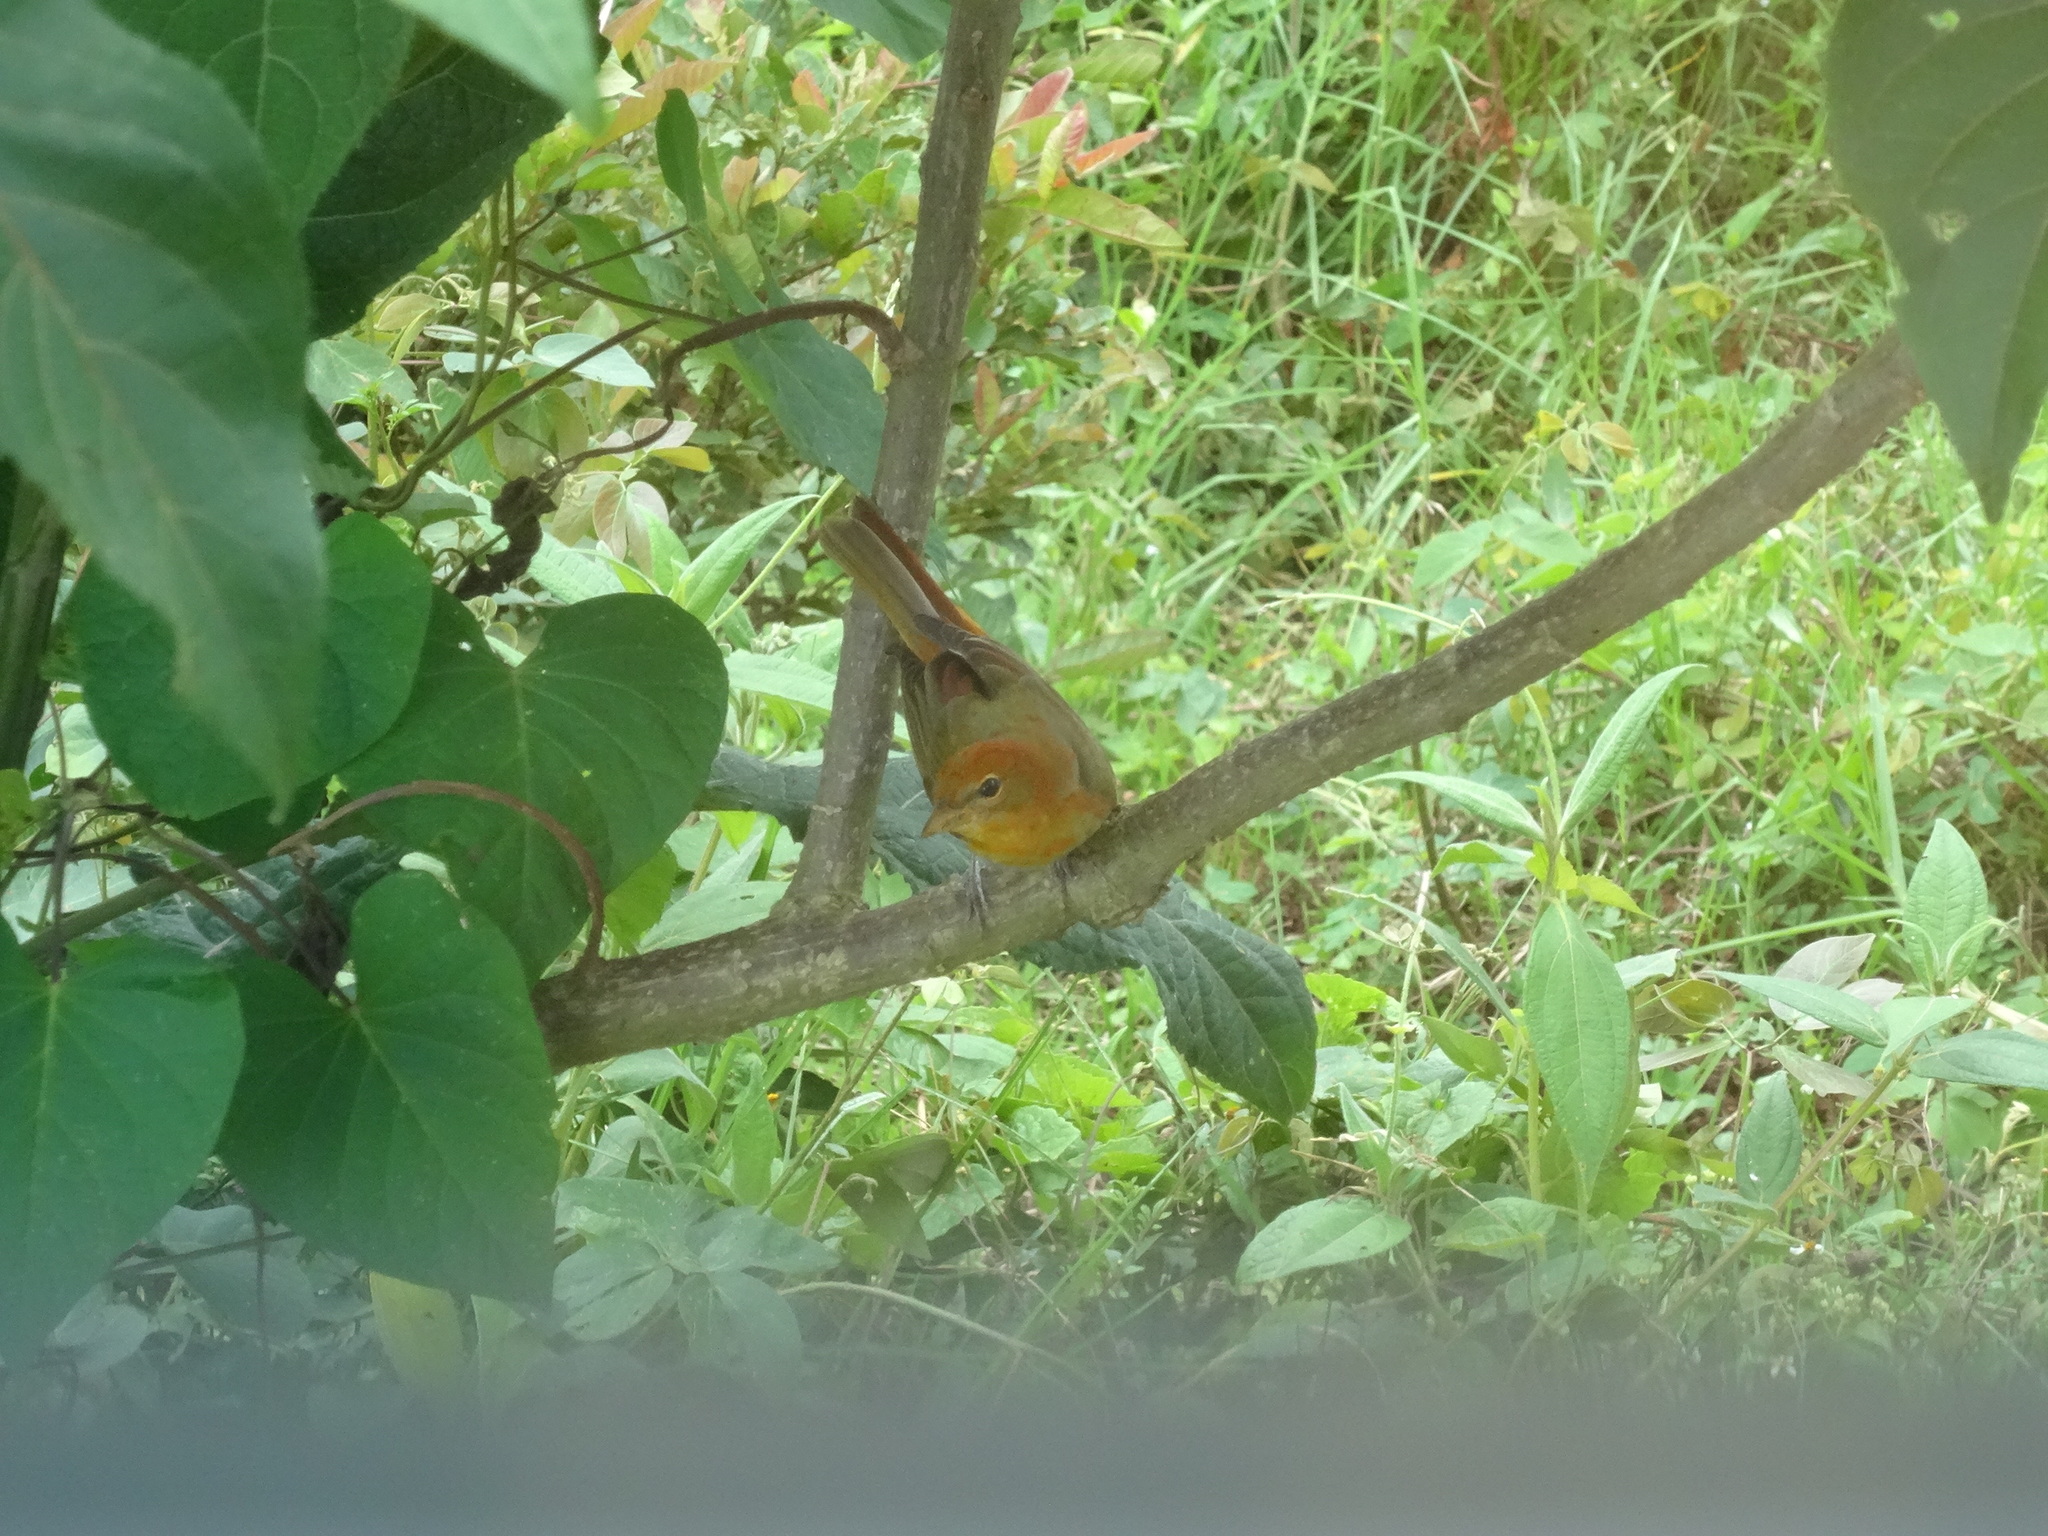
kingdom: Animalia
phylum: Chordata
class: Aves
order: Passeriformes
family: Cardinalidae
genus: Piranga
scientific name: Piranga rubra
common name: Summer tanager
